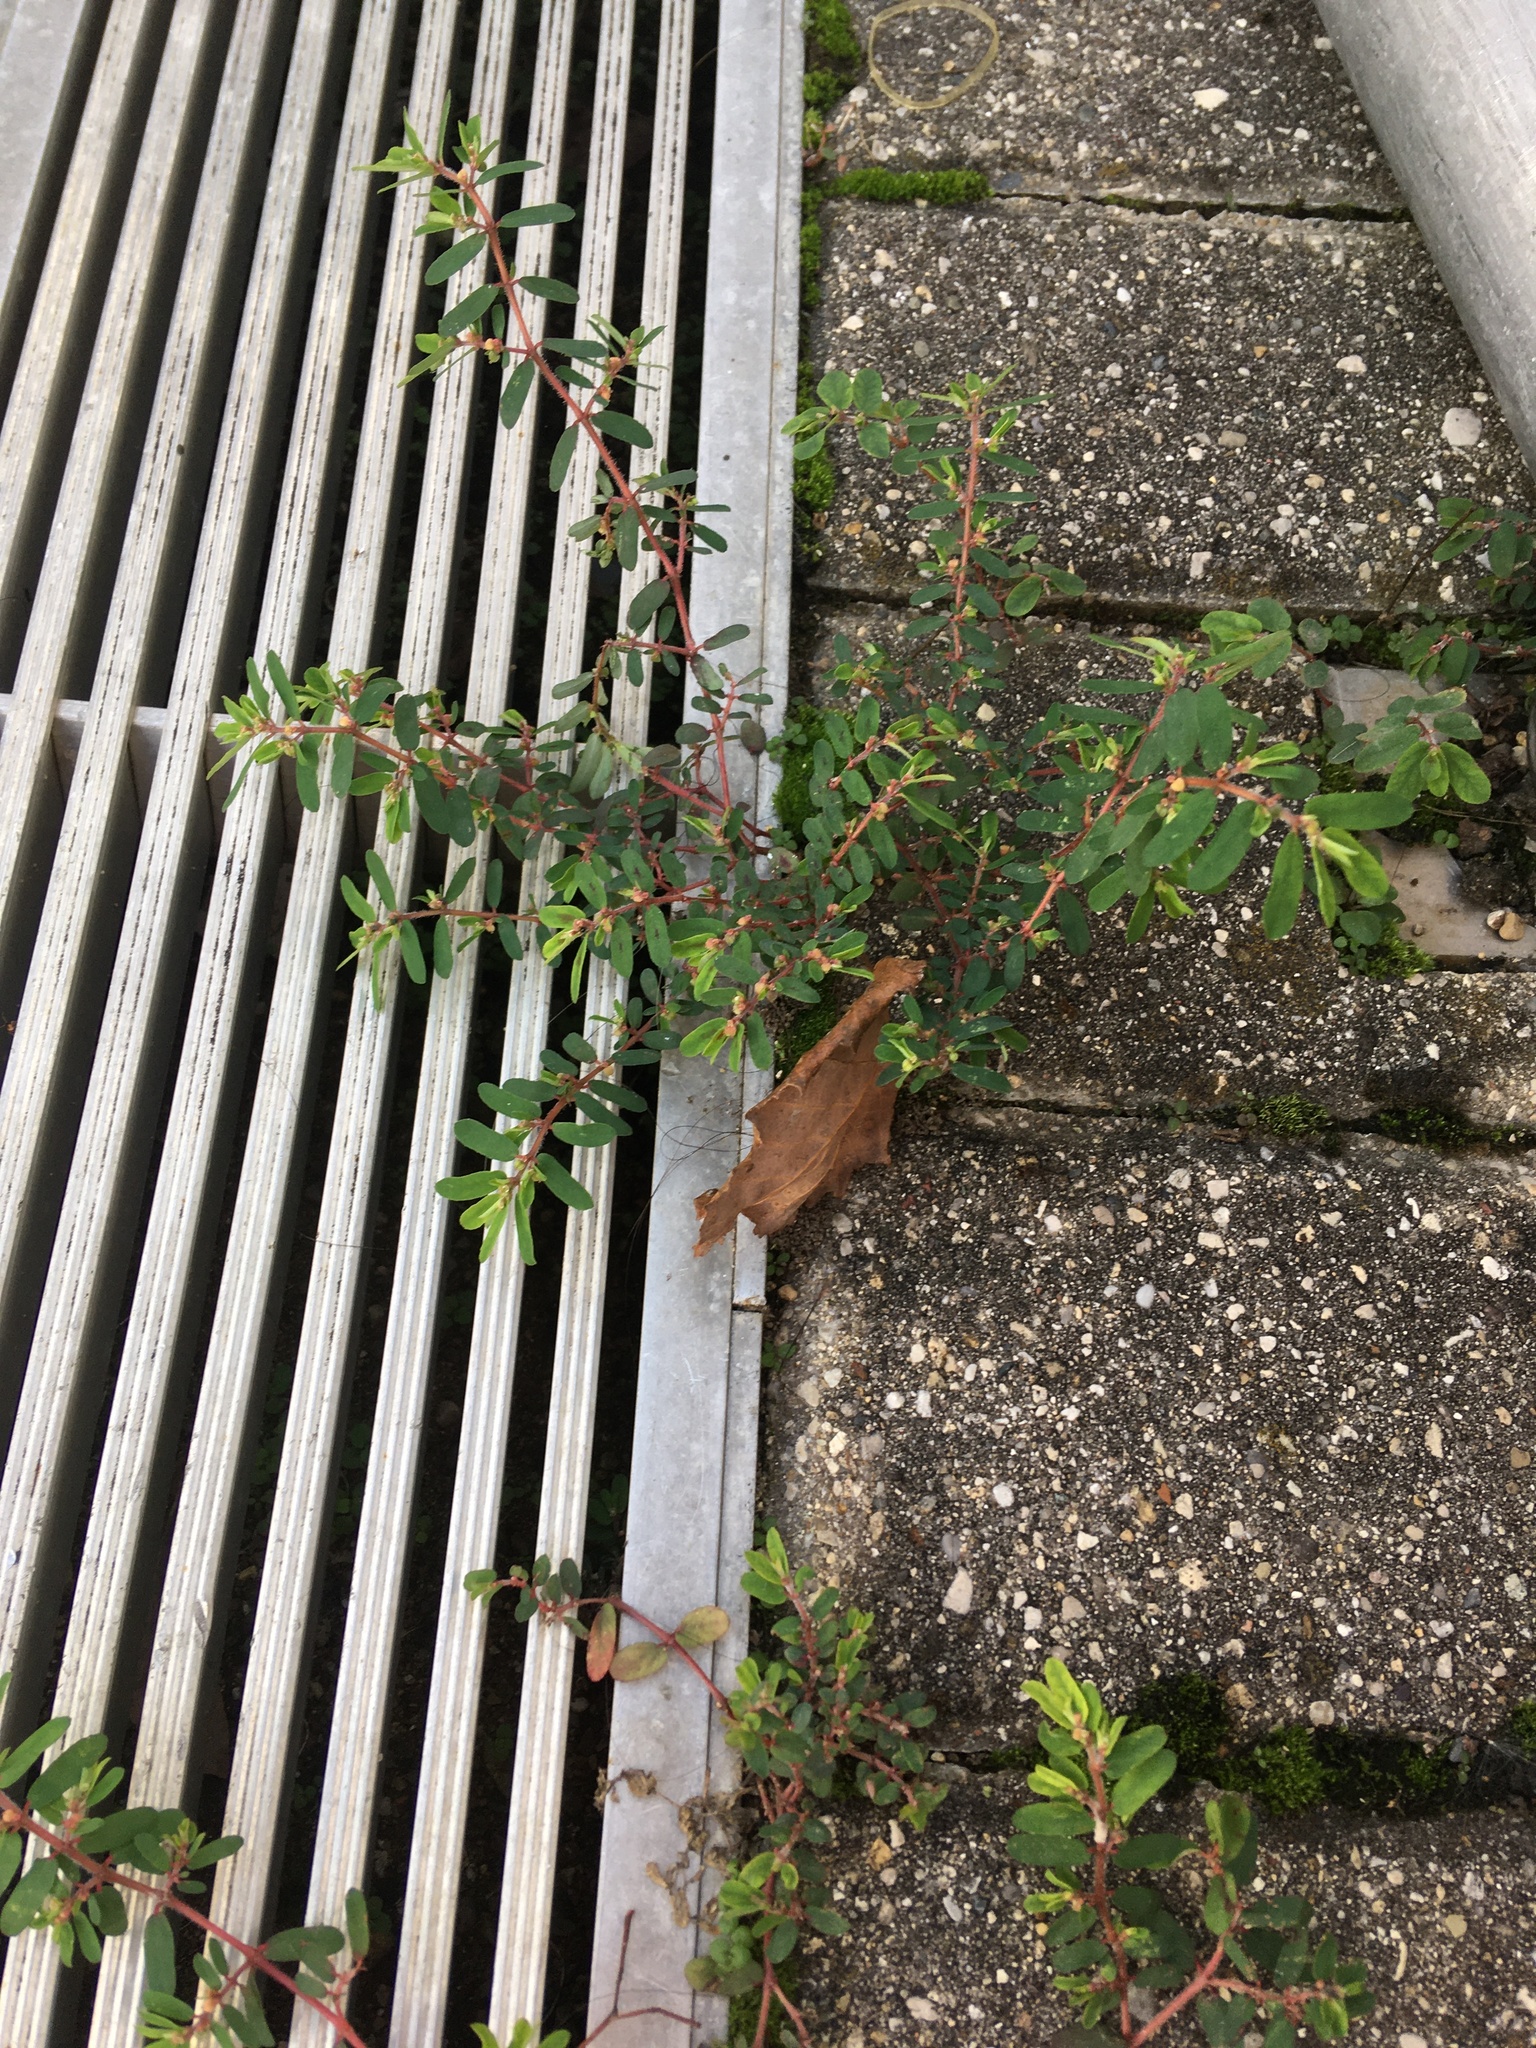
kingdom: Plantae
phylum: Tracheophyta
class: Magnoliopsida
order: Malpighiales
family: Euphorbiaceae
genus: Euphorbia
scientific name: Euphorbia maculata
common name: Spotted spurge
